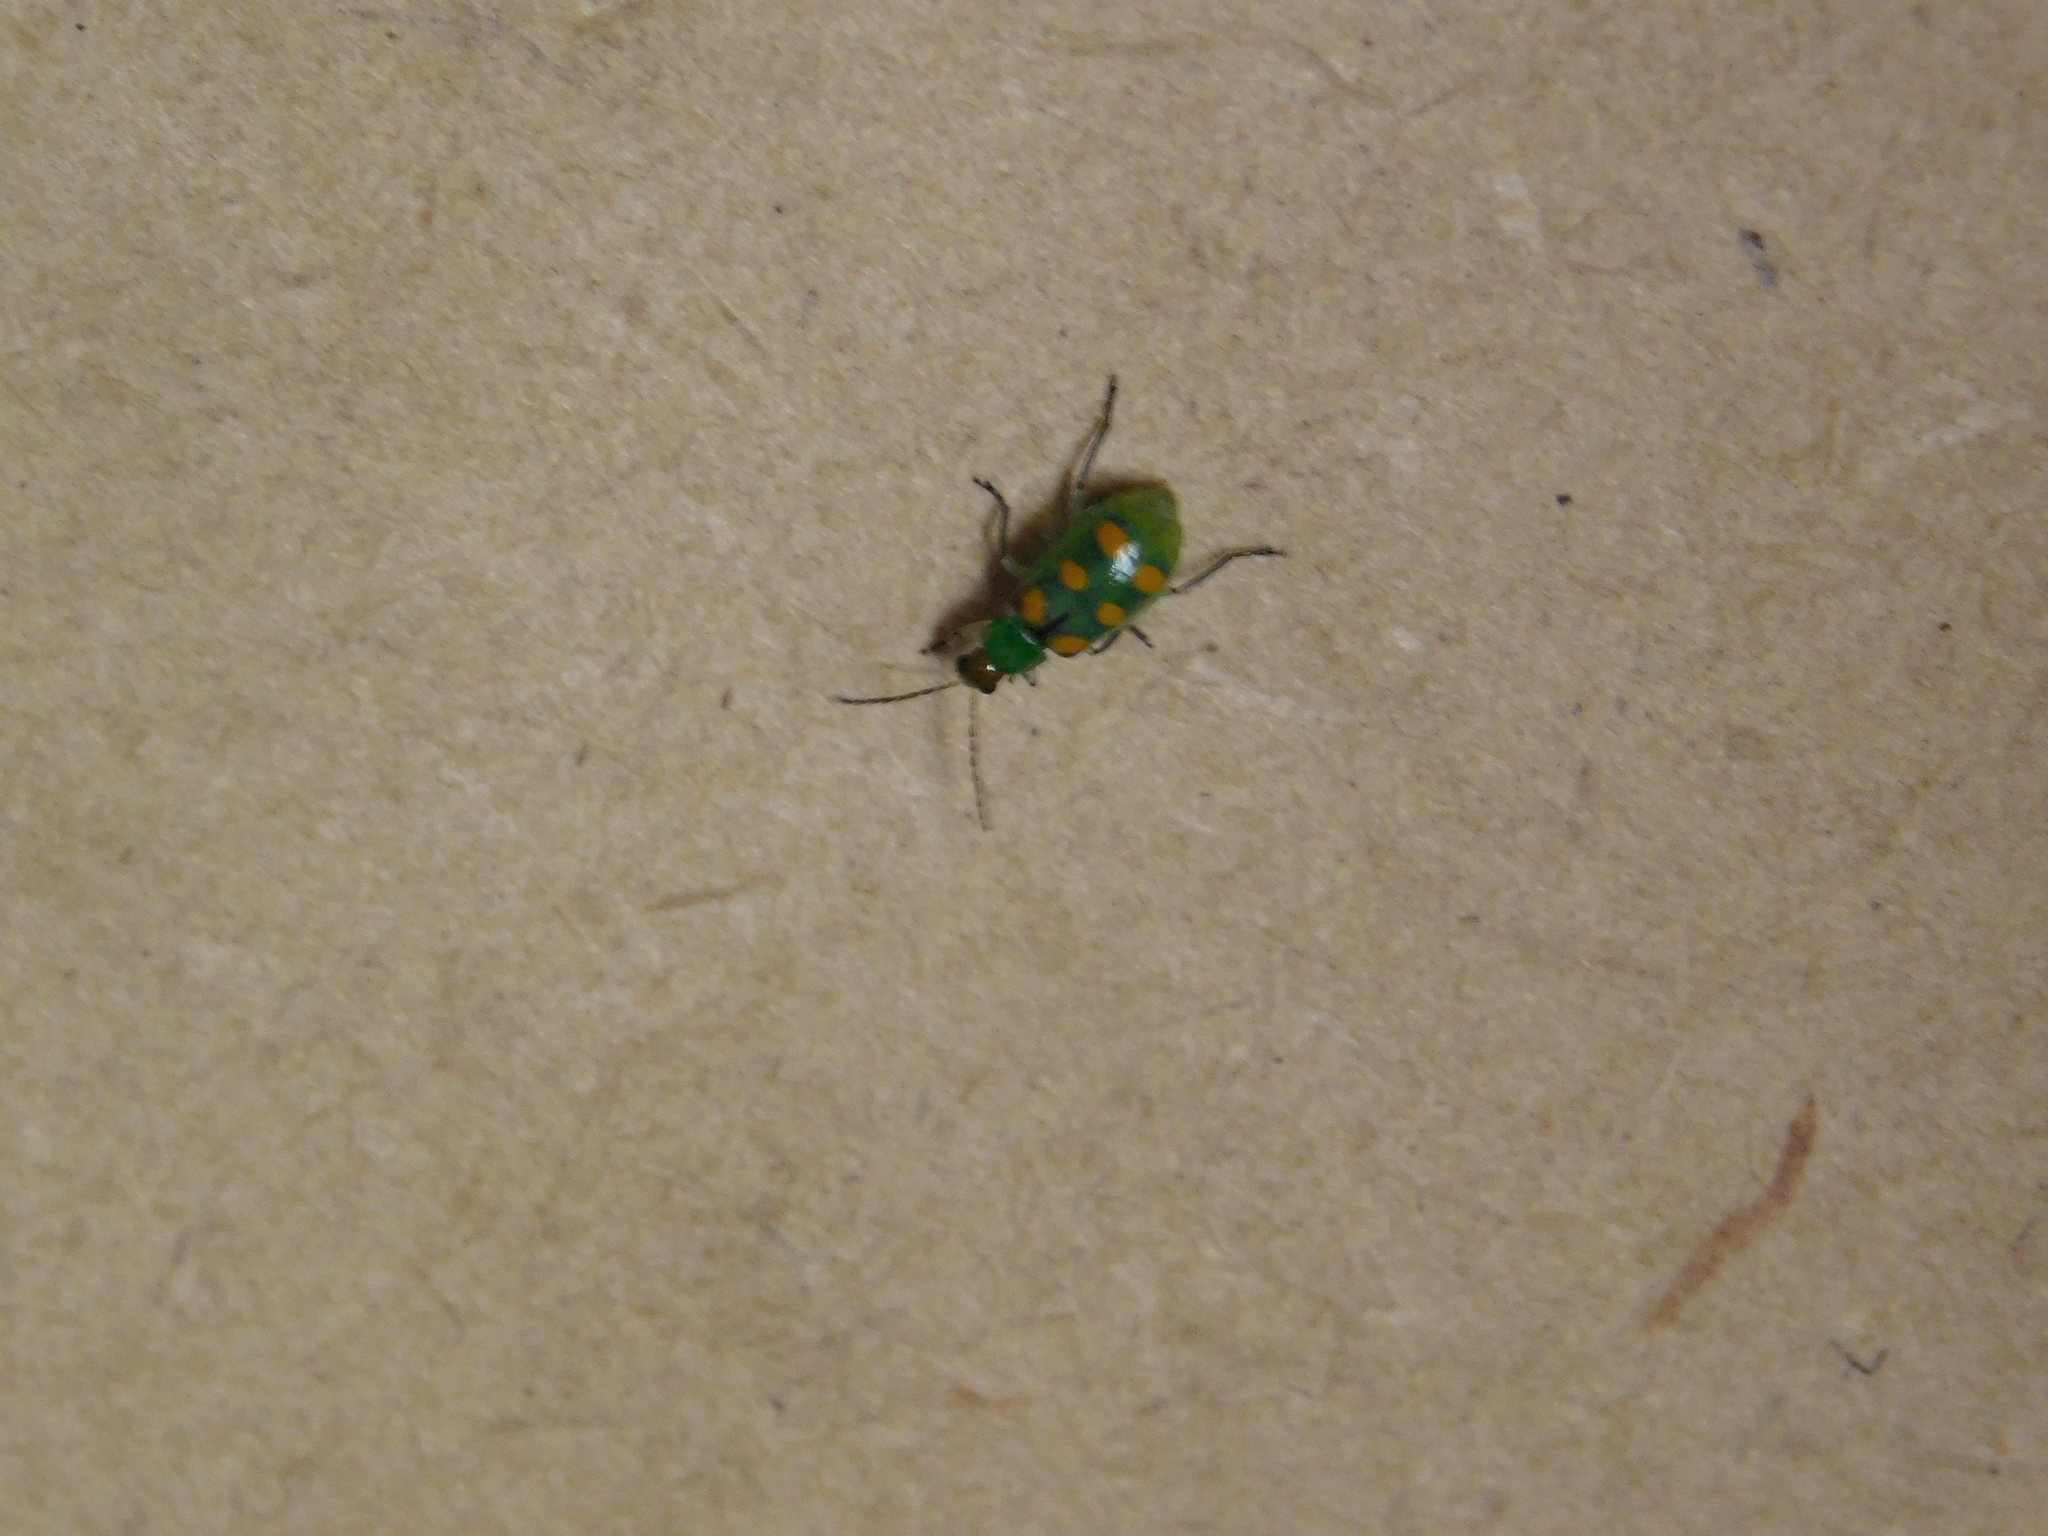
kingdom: Animalia
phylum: Arthropoda
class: Insecta
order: Coleoptera
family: Chrysomelidae
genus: Diabrotica
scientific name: Diabrotica speciosa
